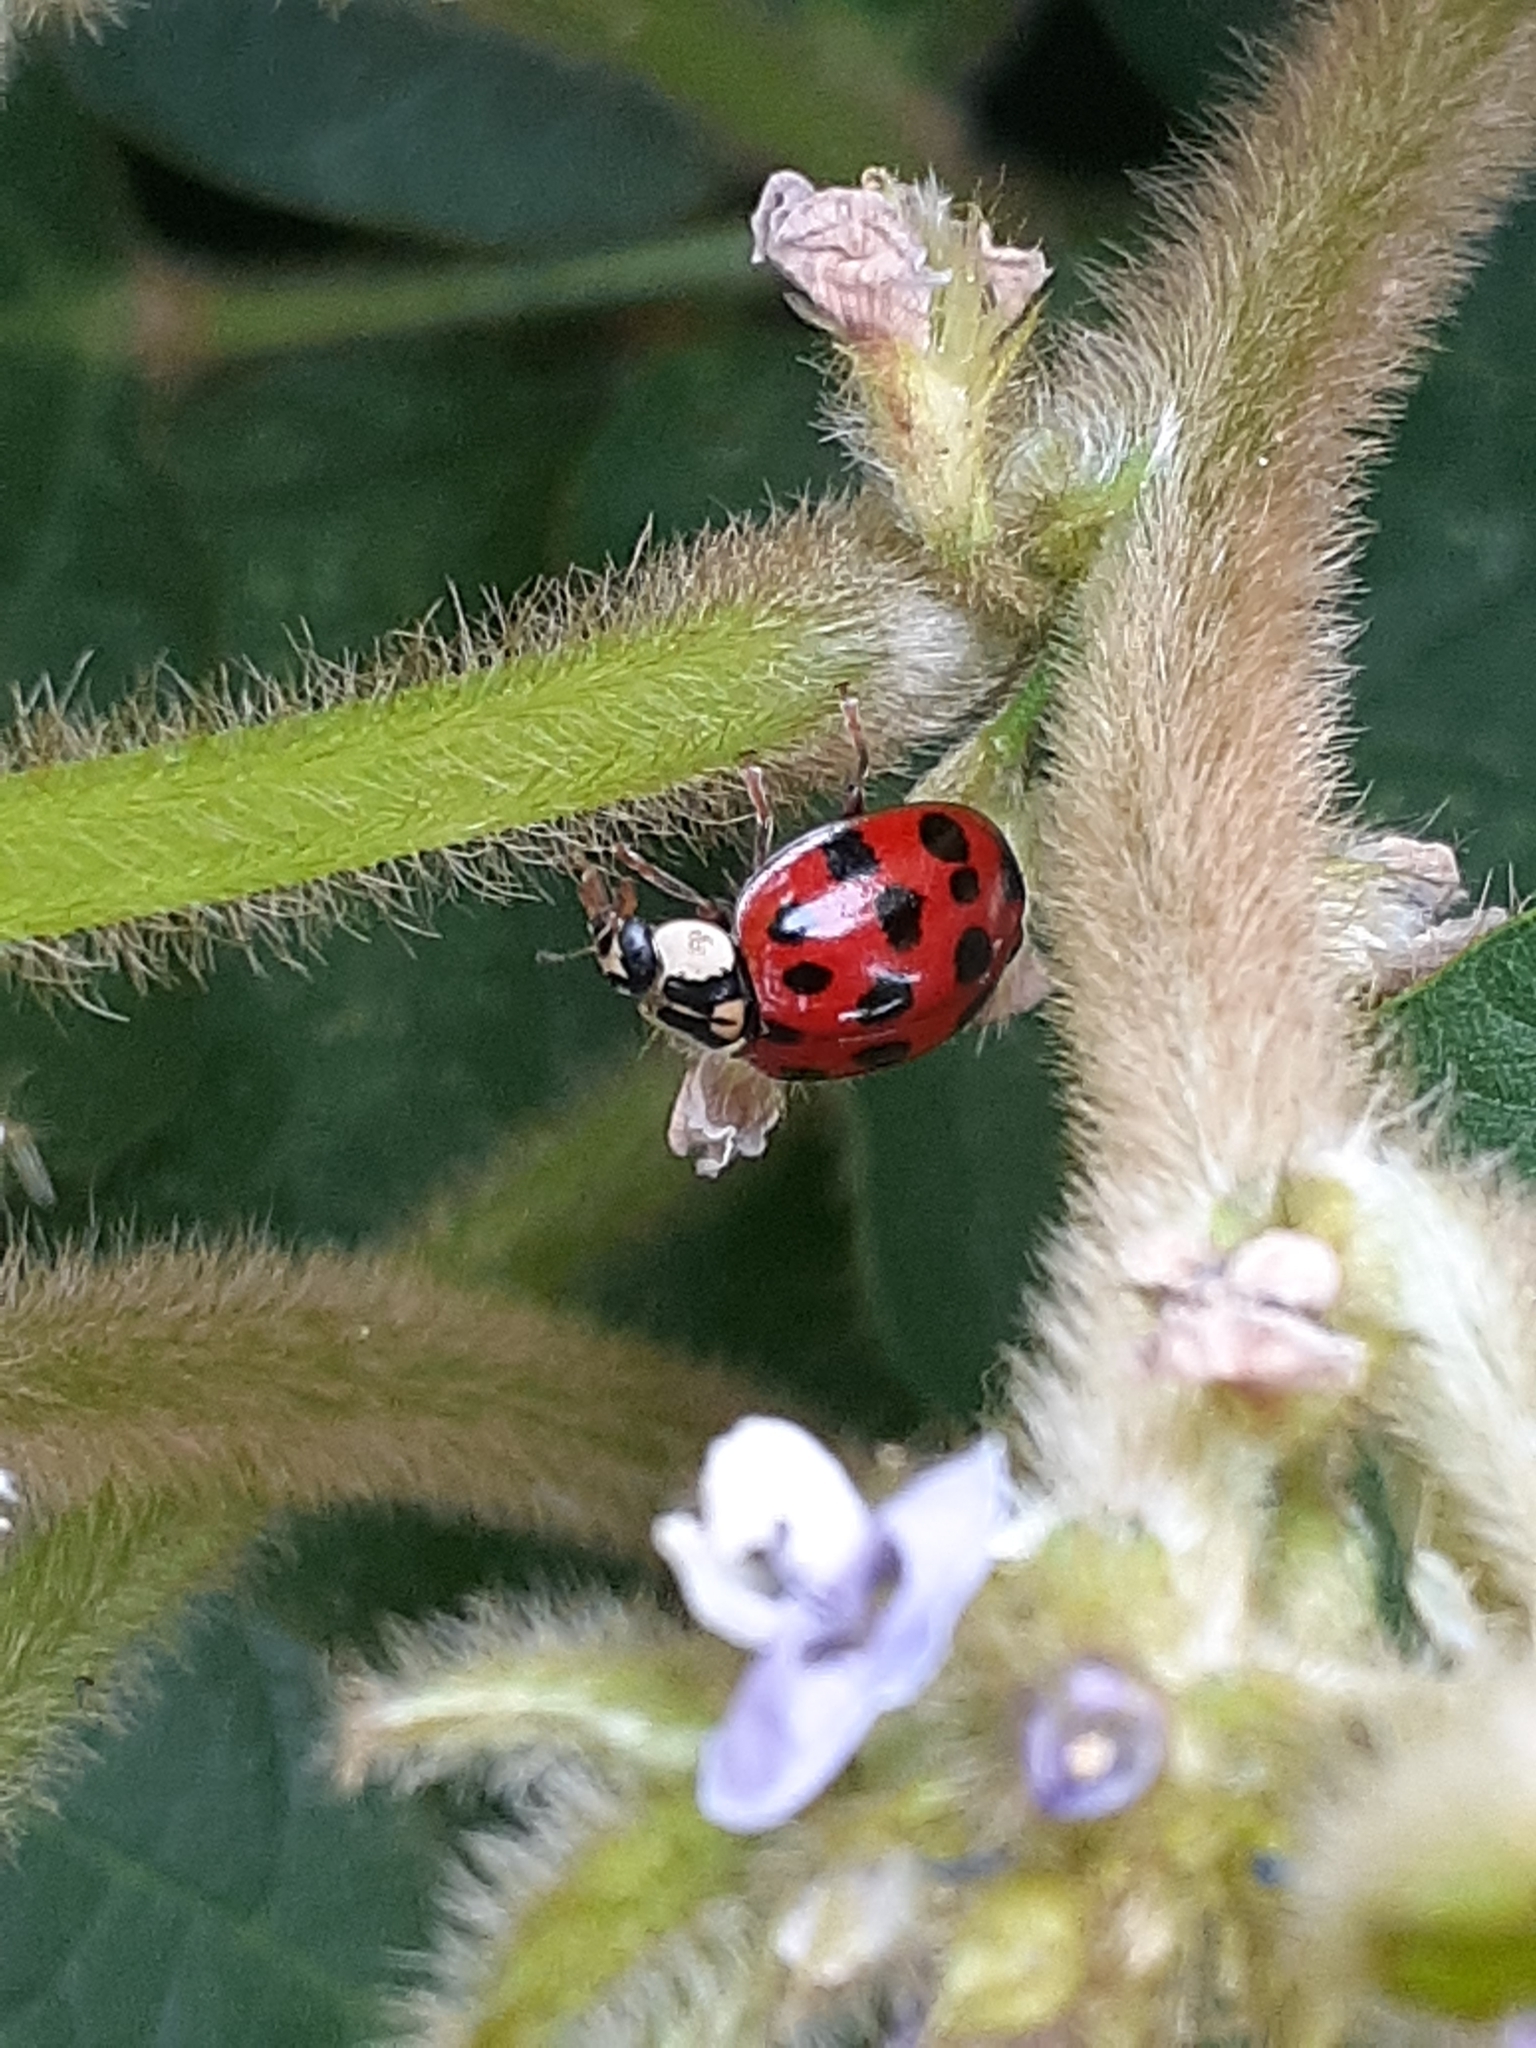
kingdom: Animalia
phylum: Arthropoda
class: Insecta
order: Coleoptera
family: Coccinellidae
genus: Harmonia
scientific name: Harmonia axyridis
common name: Harlequin ladybird
